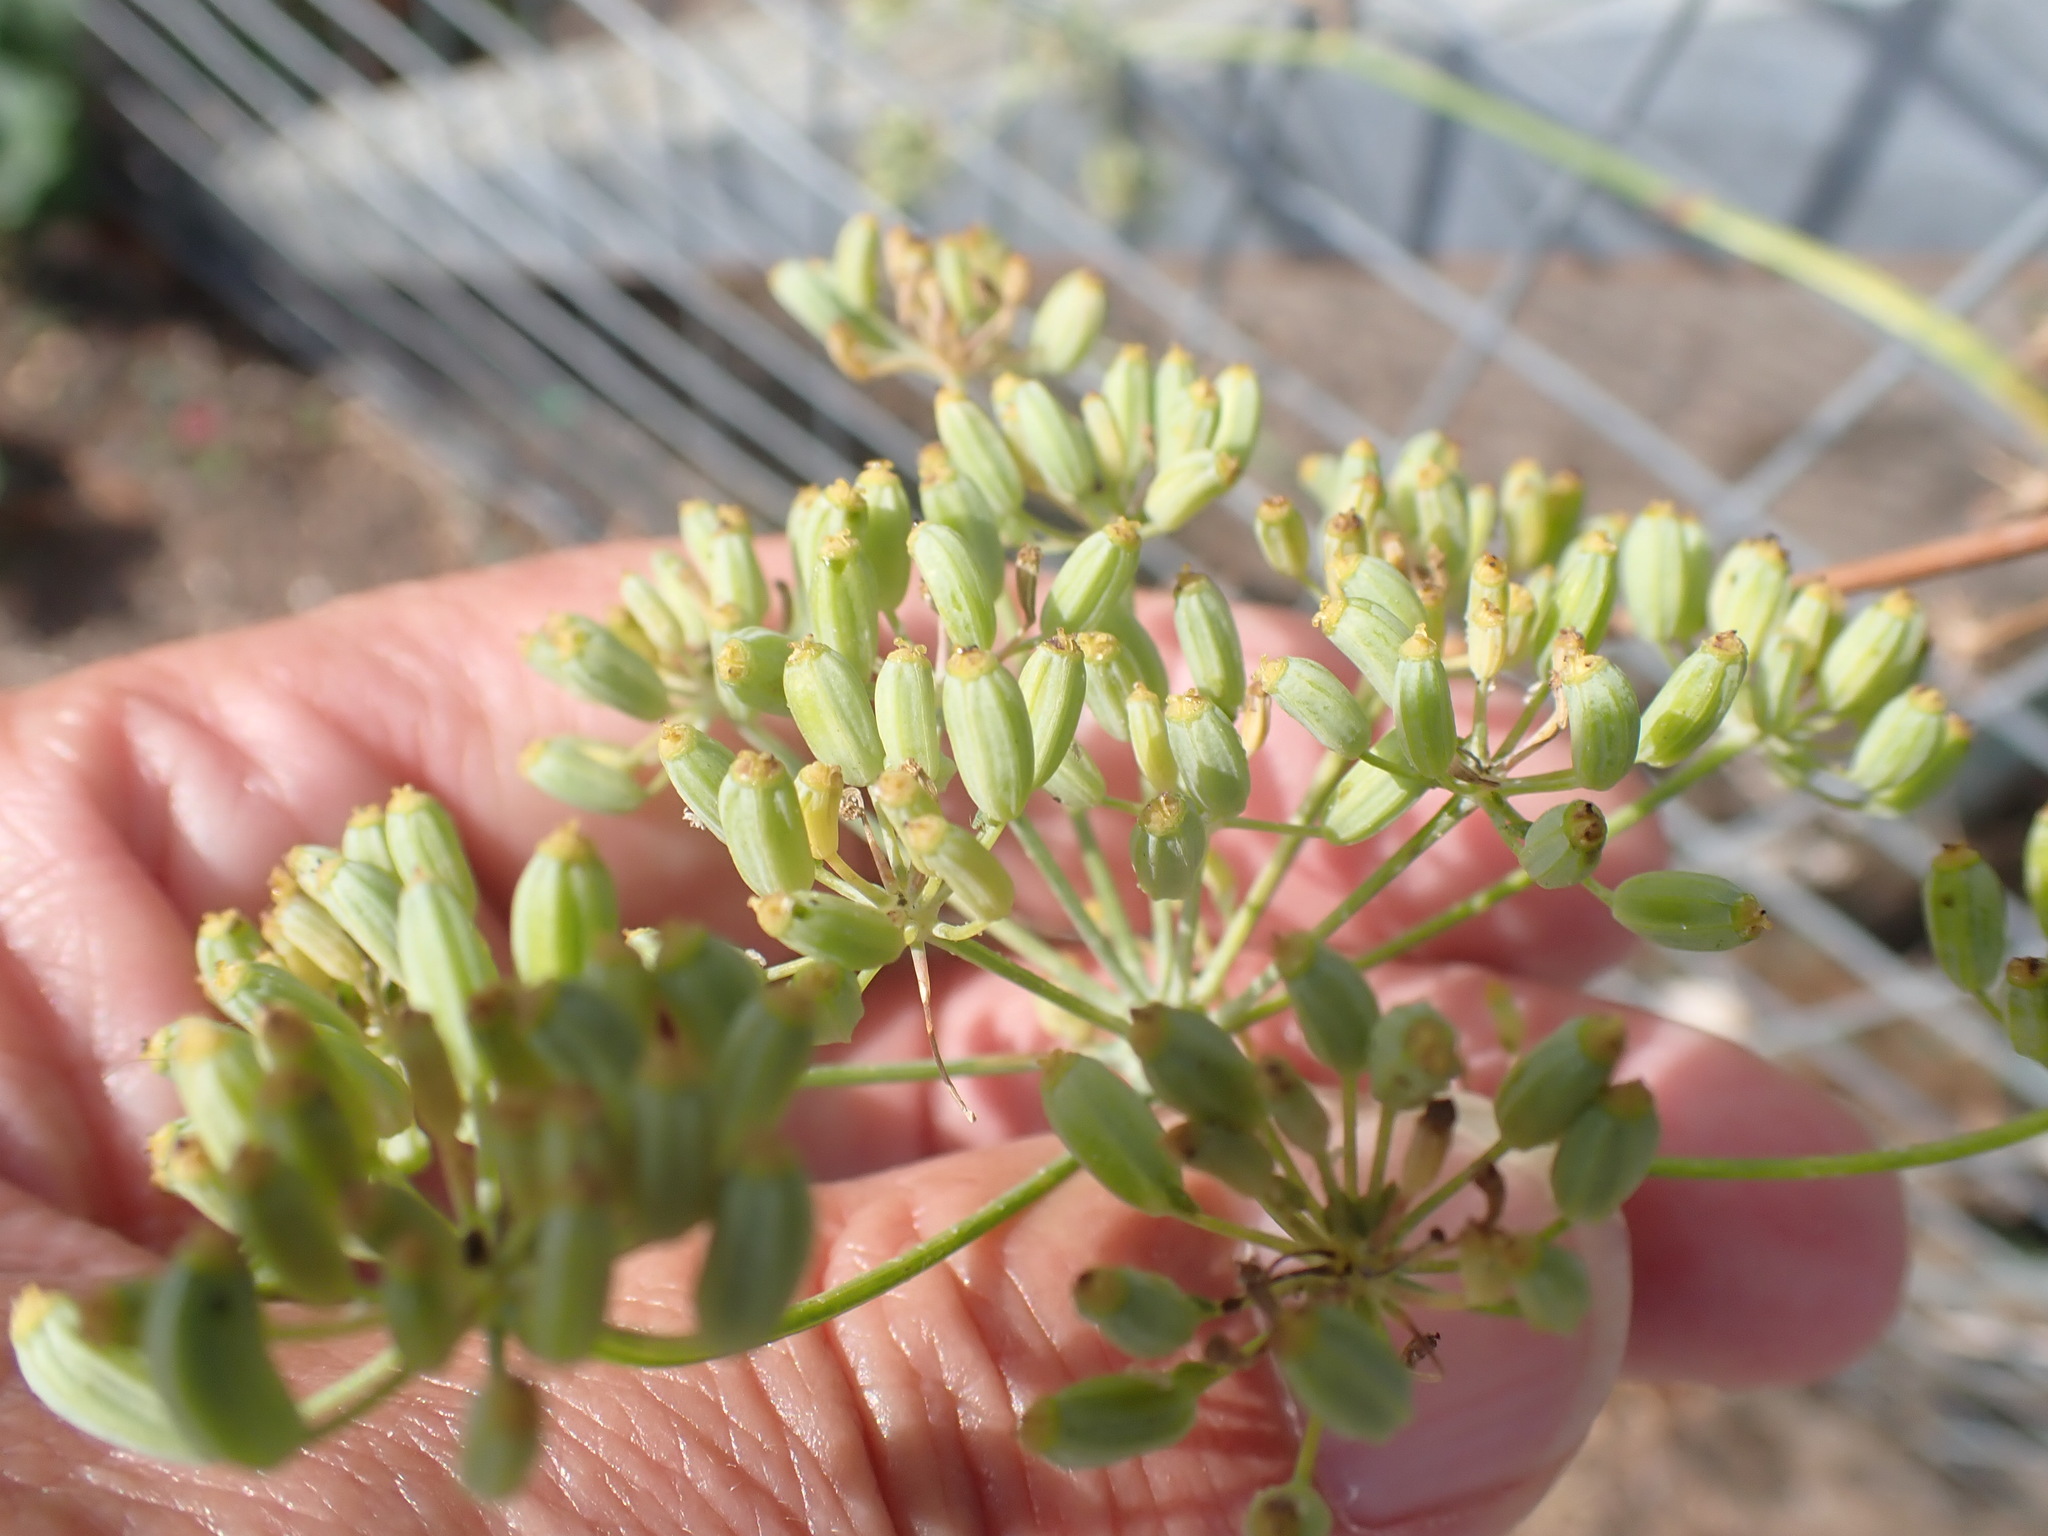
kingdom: Plantae
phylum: Tracheophyta
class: Magnoliopsida
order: Apiales
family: Apiaceae
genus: Foeniculum
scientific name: Foeniculum vulgare
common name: Fennel
